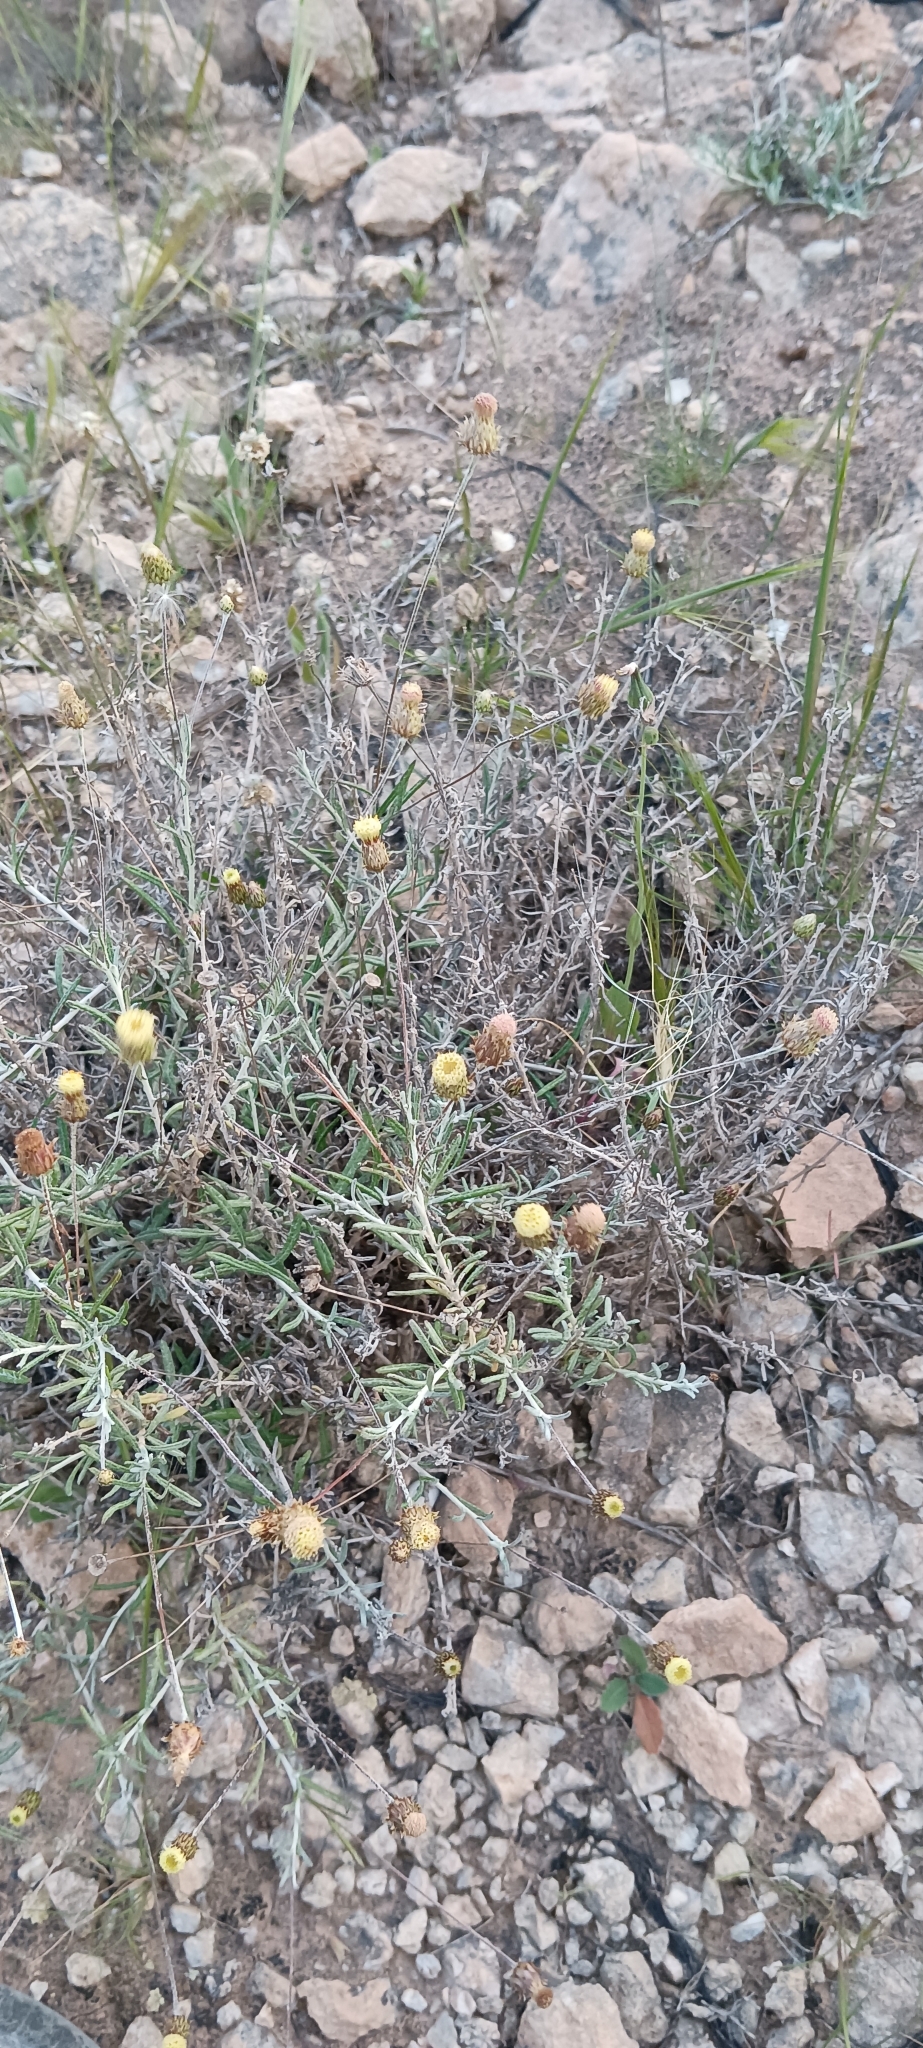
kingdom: Plantae
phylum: Tracheophyta
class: Magnoliopsida
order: Asterales
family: Asteraceae
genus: Phagnalon
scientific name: Phagnalon rupestre
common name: Rock phagnalon
